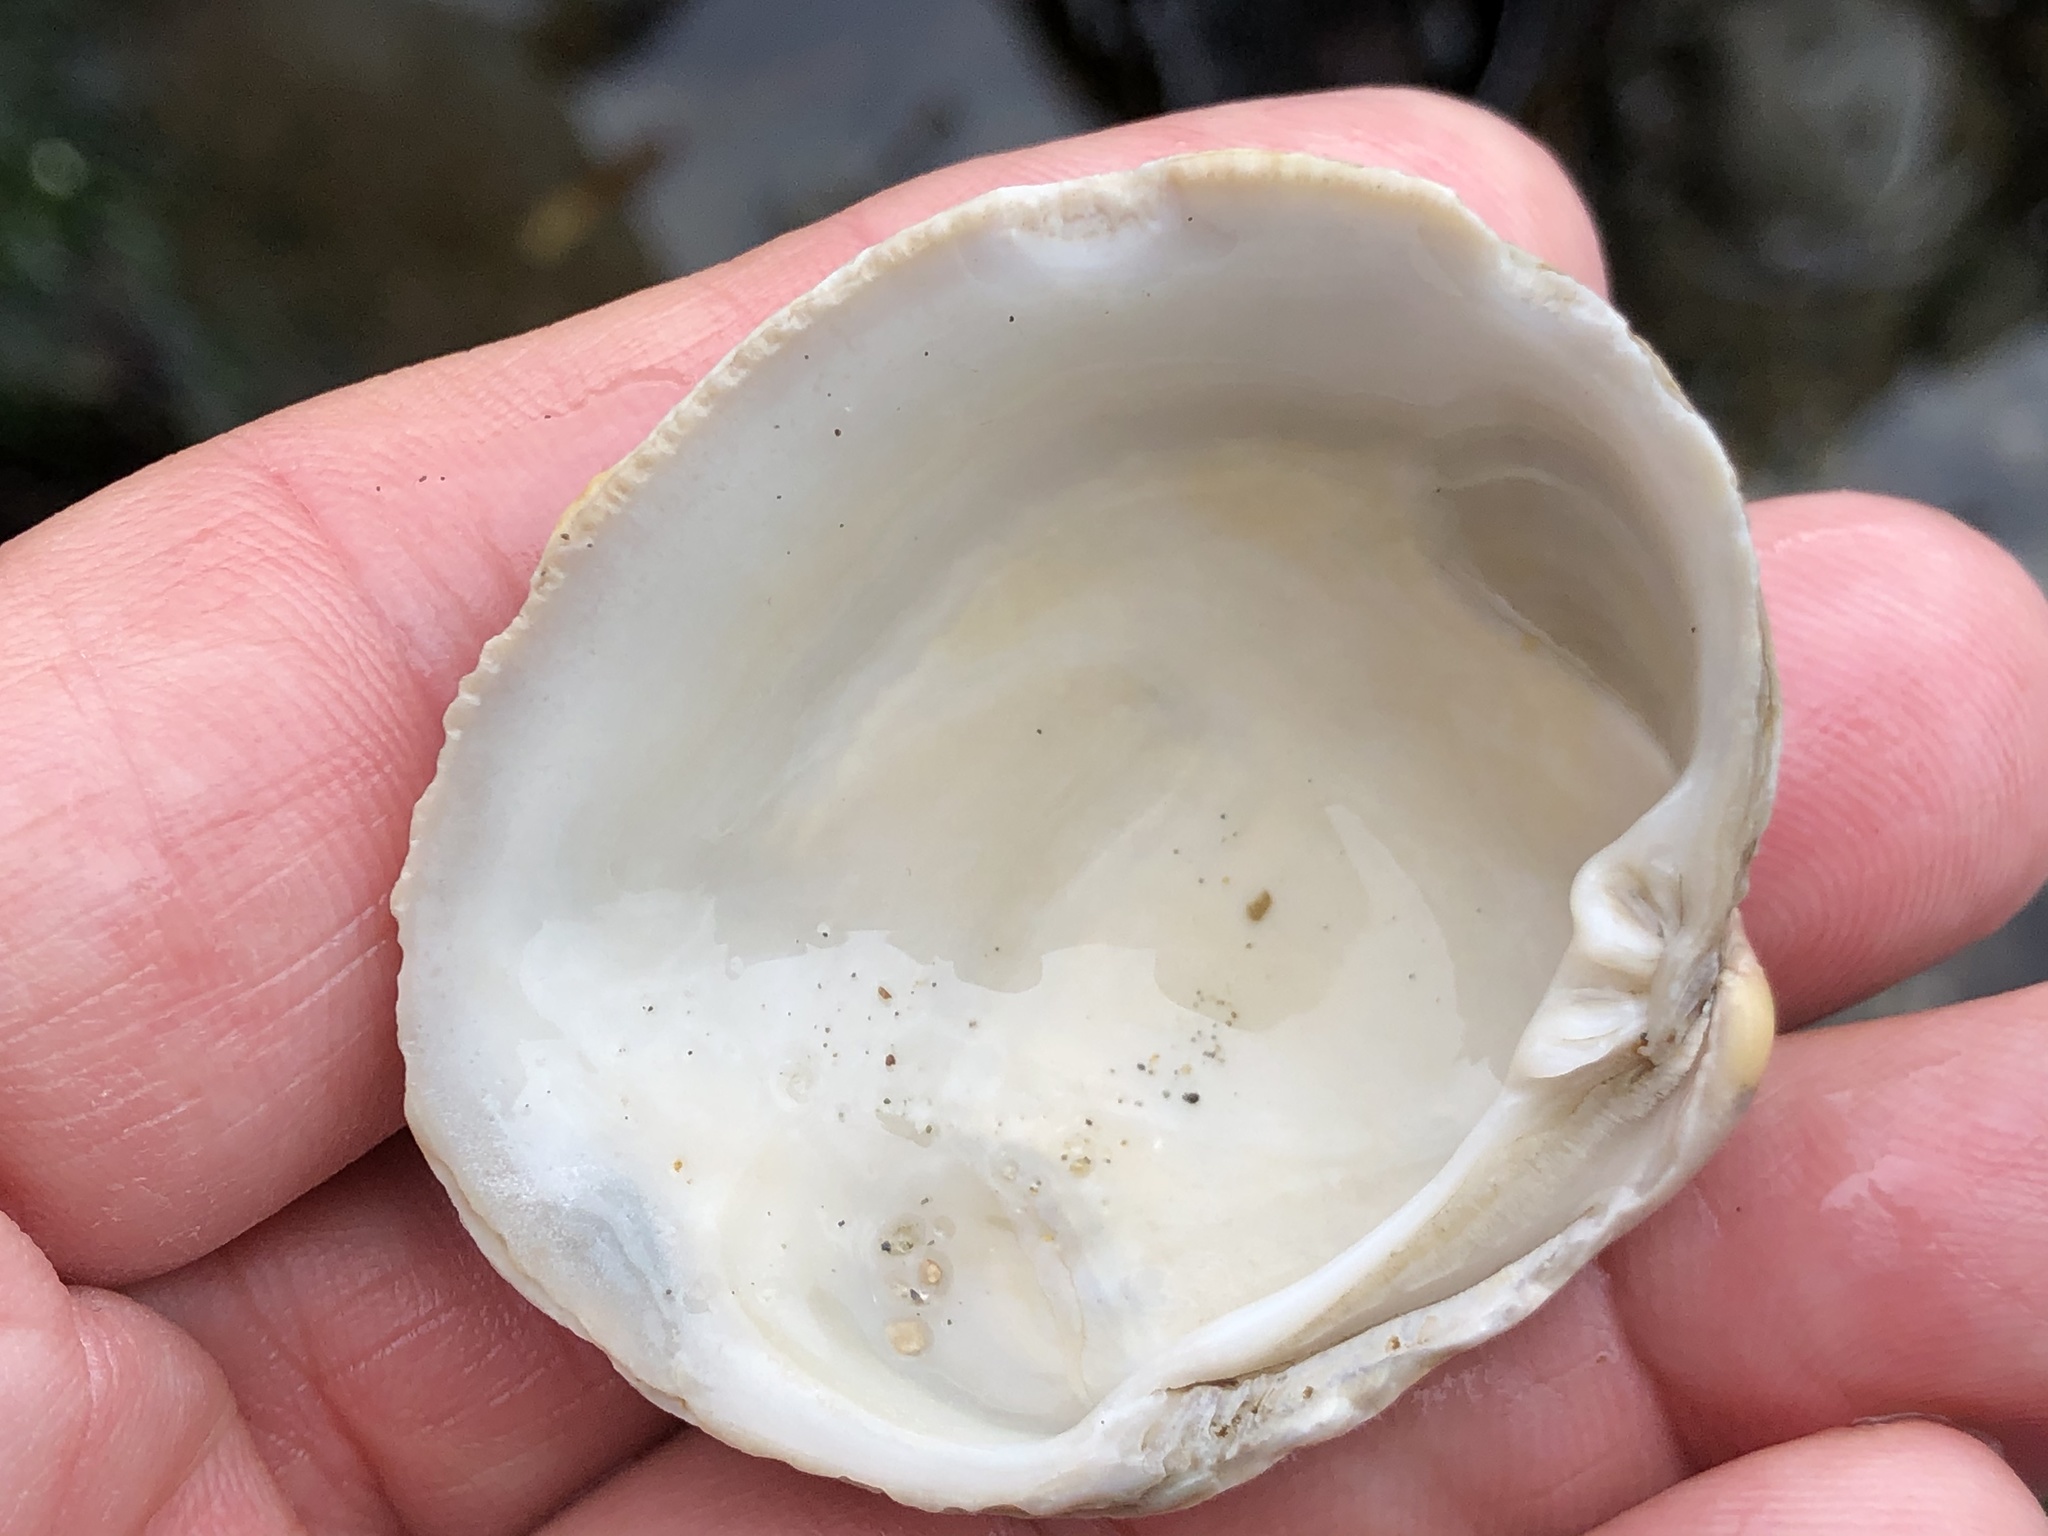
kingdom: Animalia
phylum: Mollusca
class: Bivalvia
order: Venerida
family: Veneridae
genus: Leukoma
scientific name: Leukoma staminea
